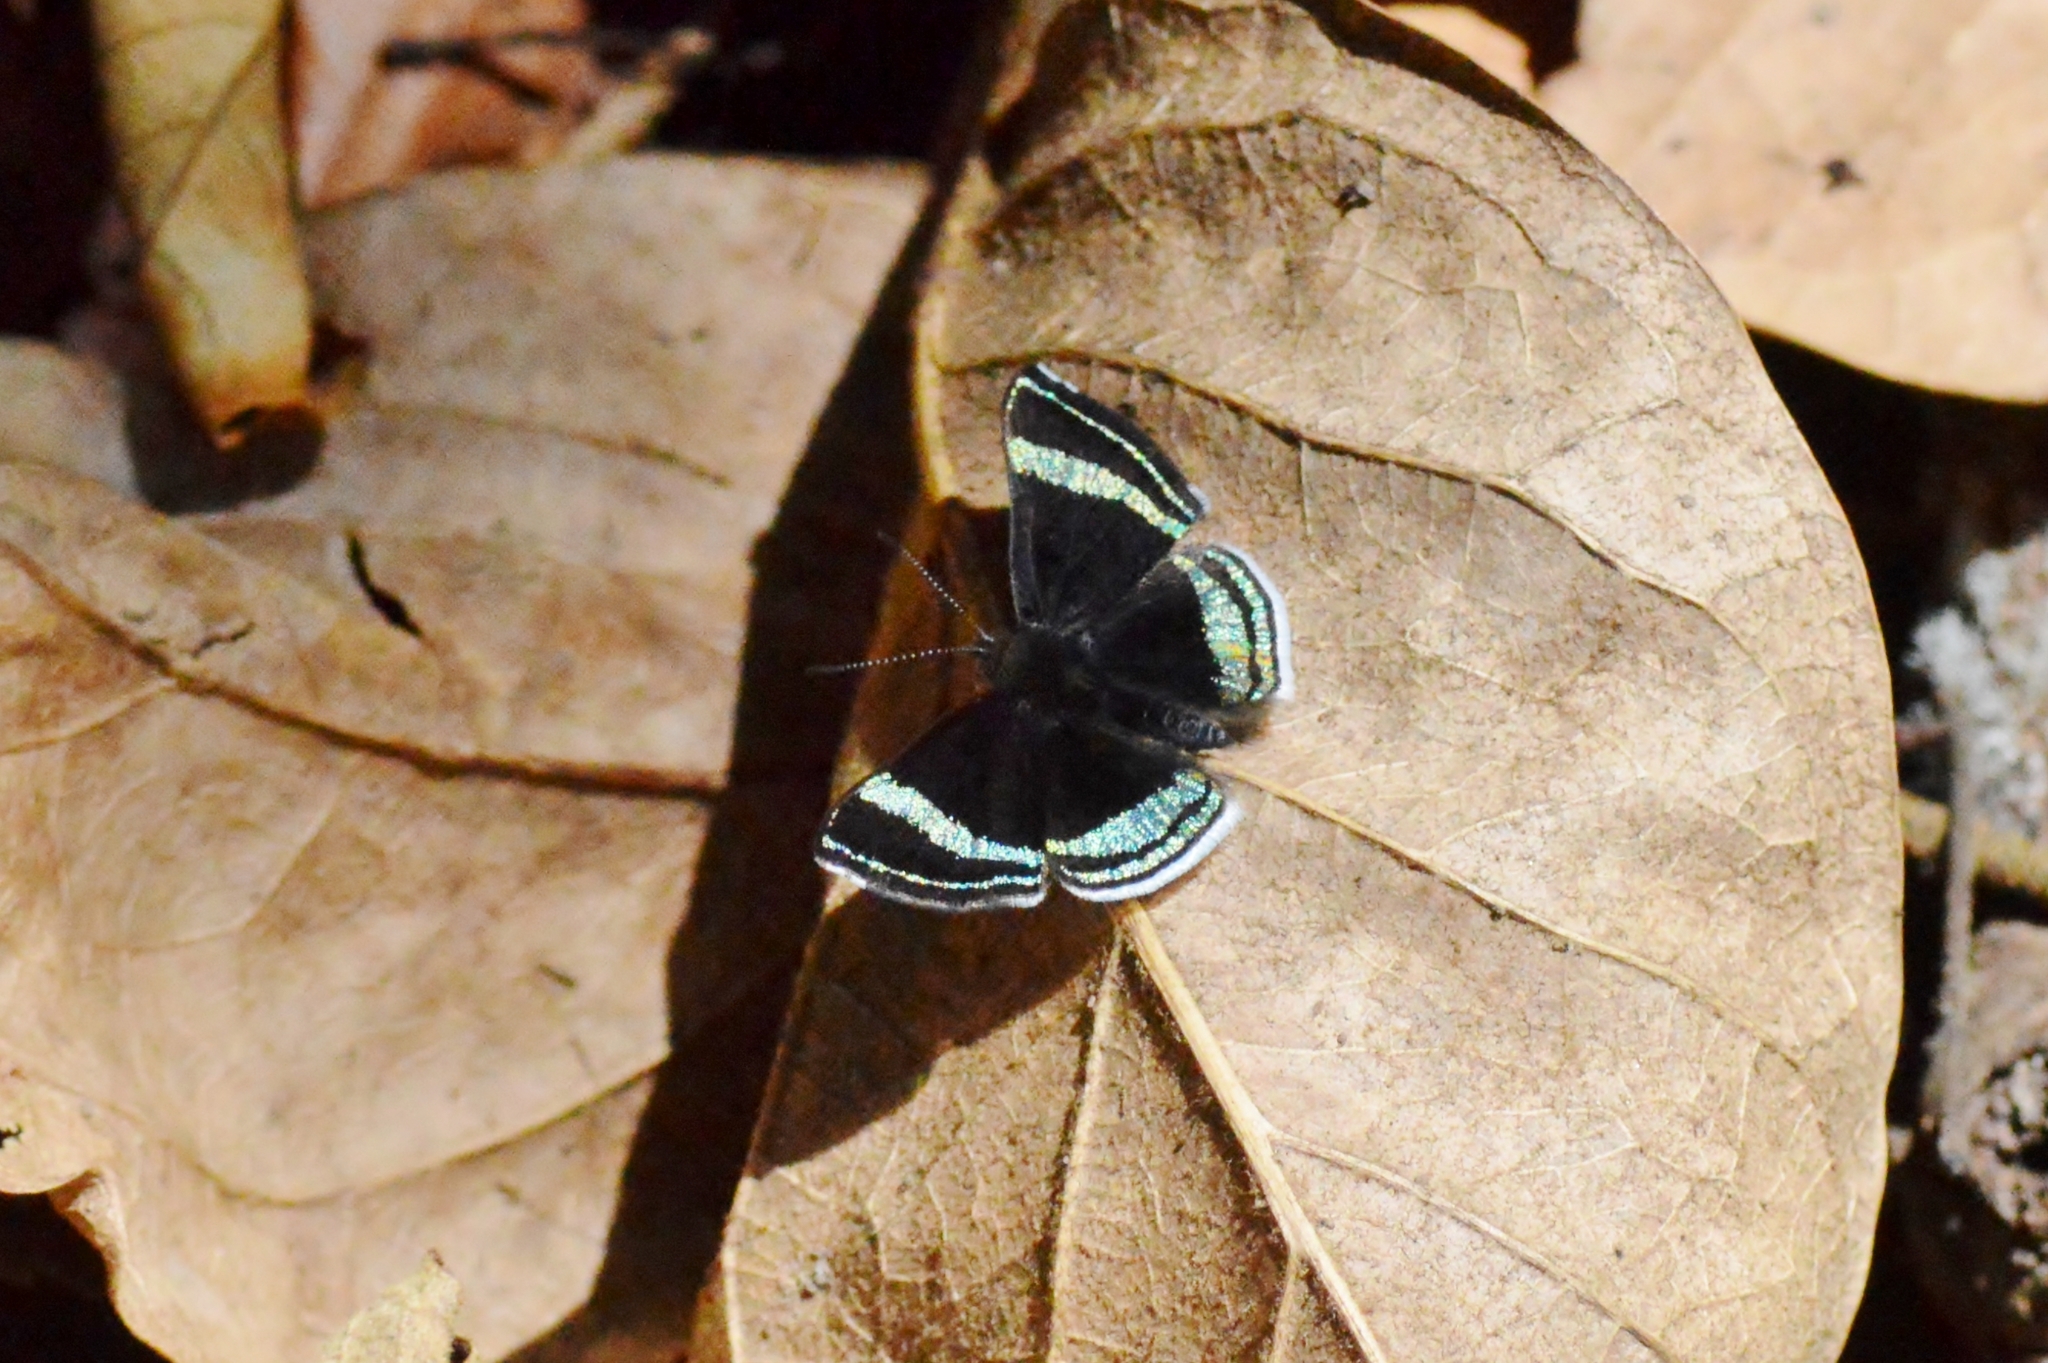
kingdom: Animalia
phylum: Arthropoda
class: Insecta
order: Lepidoptera
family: Riodinidae
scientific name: Riodinidae
